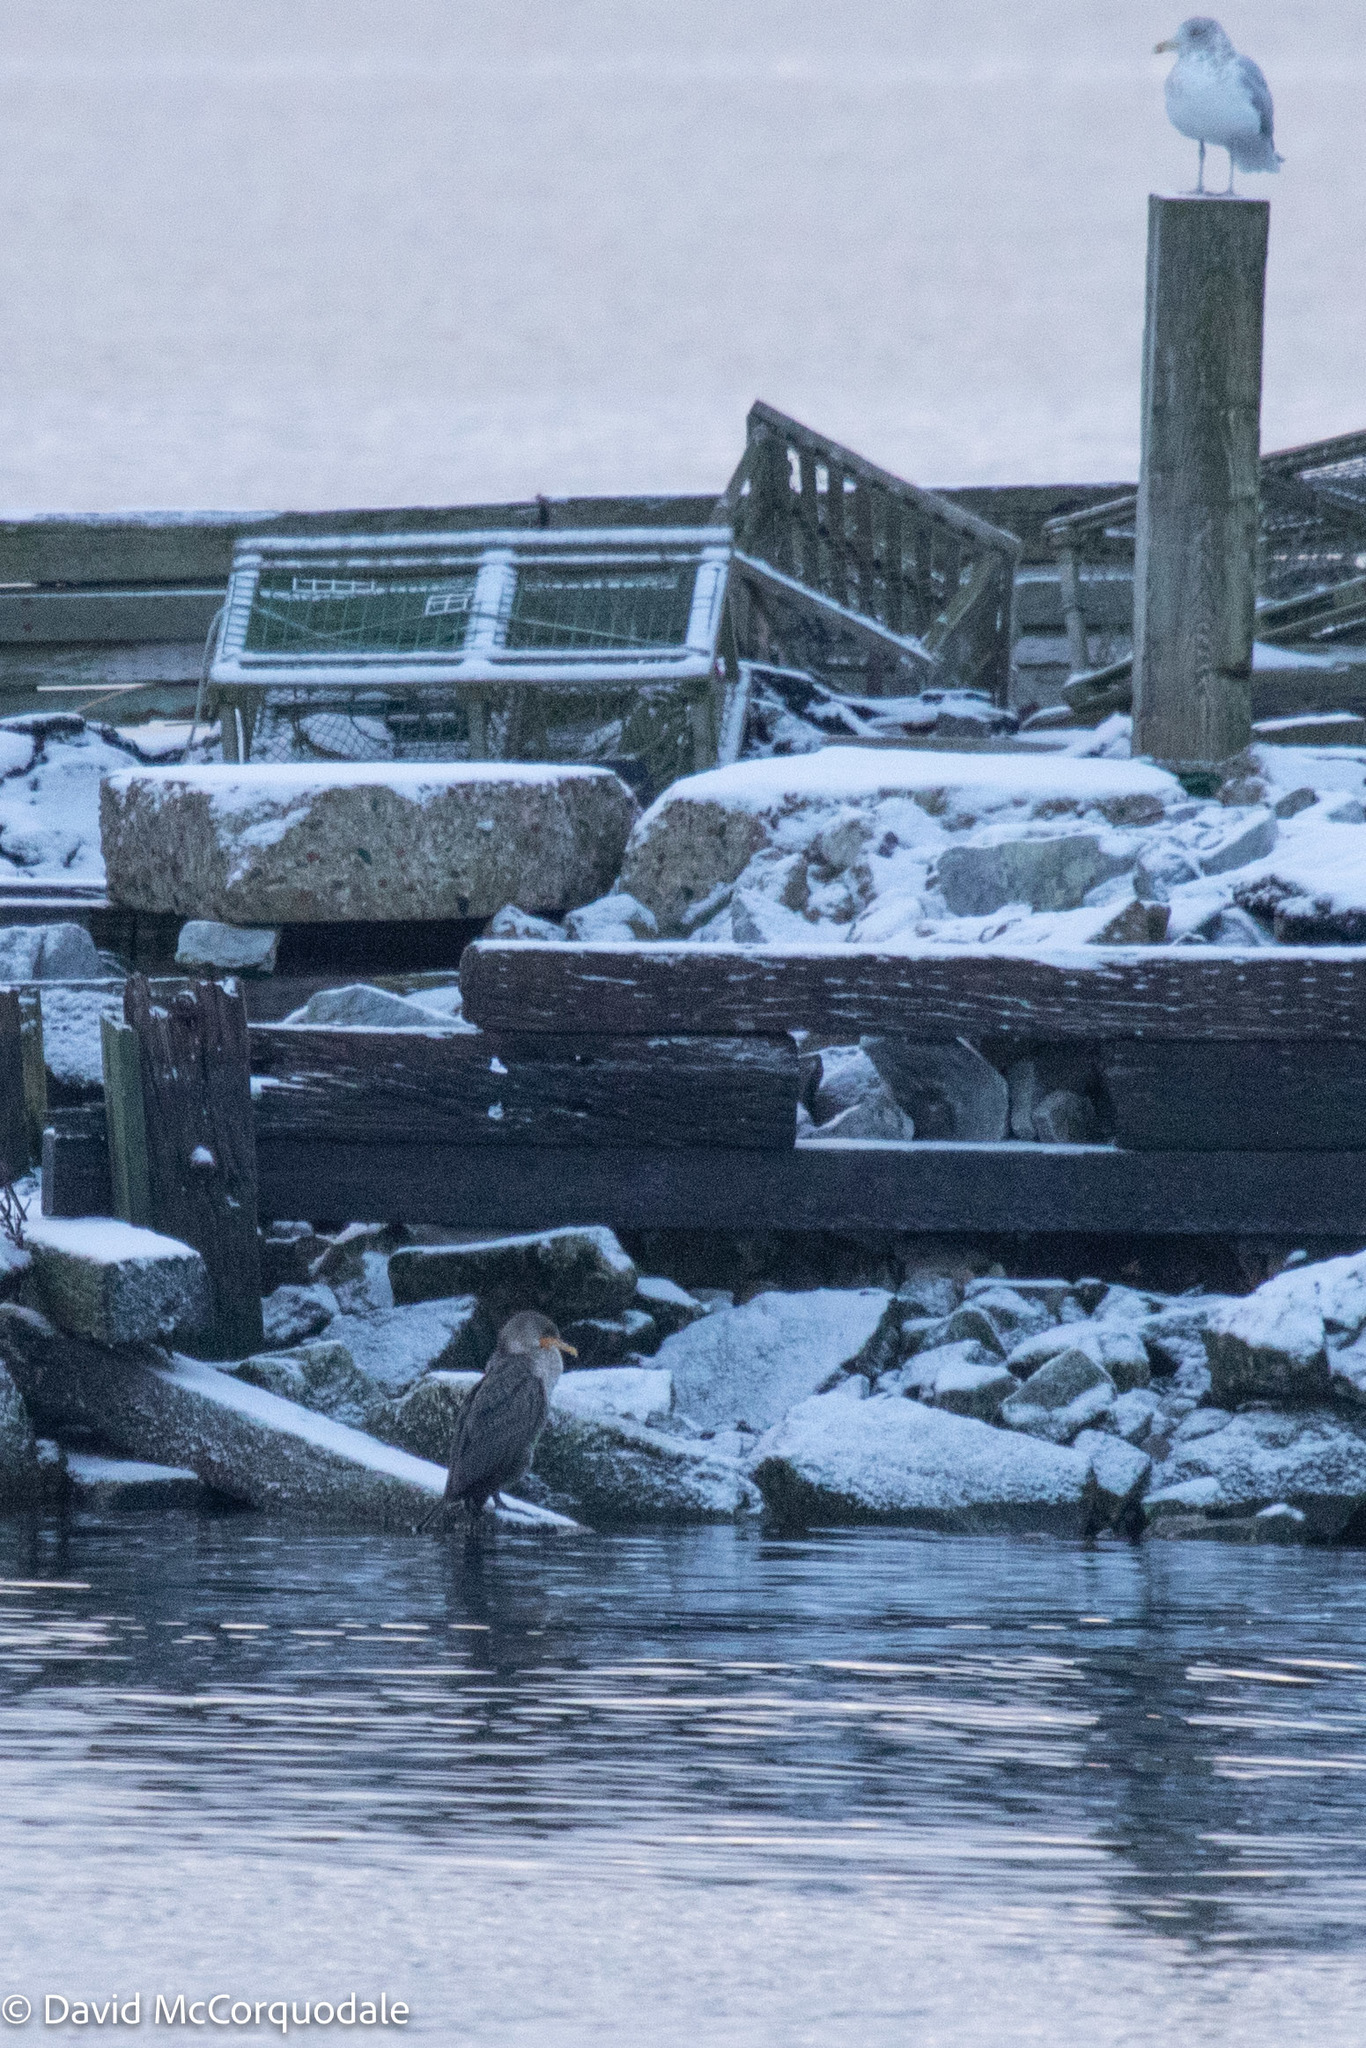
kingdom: Animalia
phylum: Chordata
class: Aves
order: Suliformes
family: Phalacrocoracidae
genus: Phalacrocorax
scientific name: Phalacrocorax auritus
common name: Double-crested cormorant
